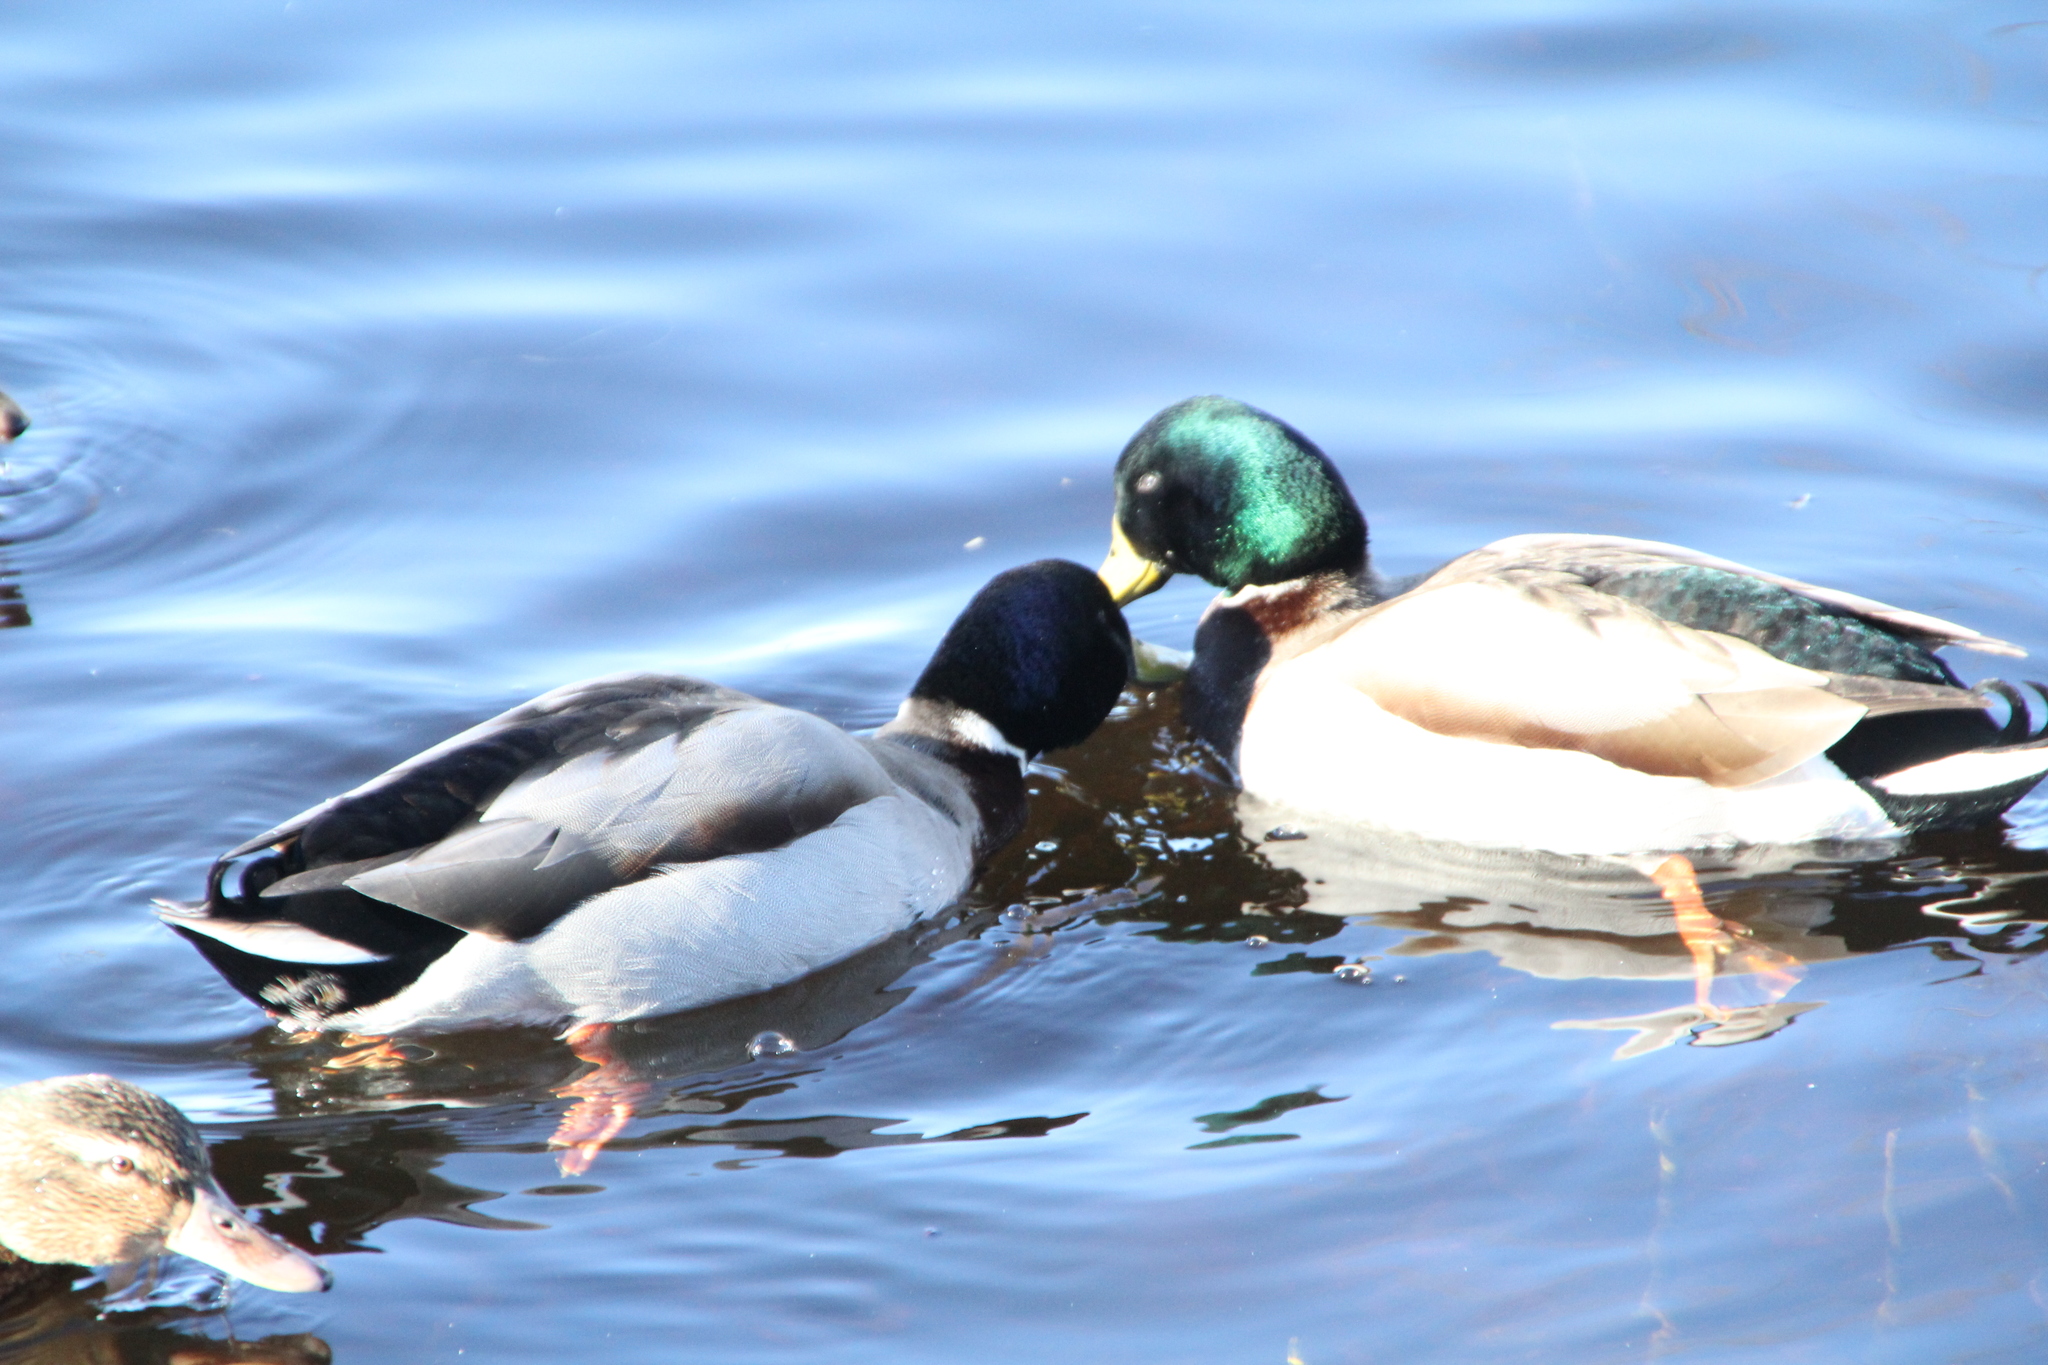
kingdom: Animalia
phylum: Chordata
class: Aves
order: Anseriformes
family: Anatidae
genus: Anas
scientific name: Anas platyrhynchos
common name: Mallard
